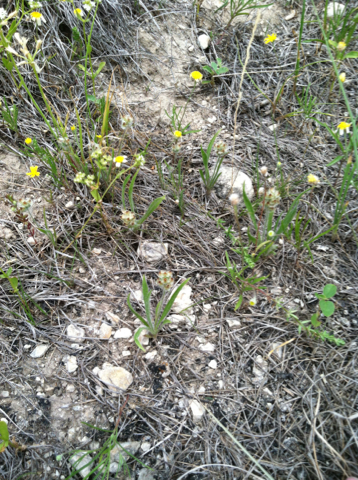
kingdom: Plantae
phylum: Tracheophyta
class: Magnoliopsida
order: Lamiales
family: Plantaginaceae
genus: Plantago
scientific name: Plantago helleri
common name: Heller's plantain
